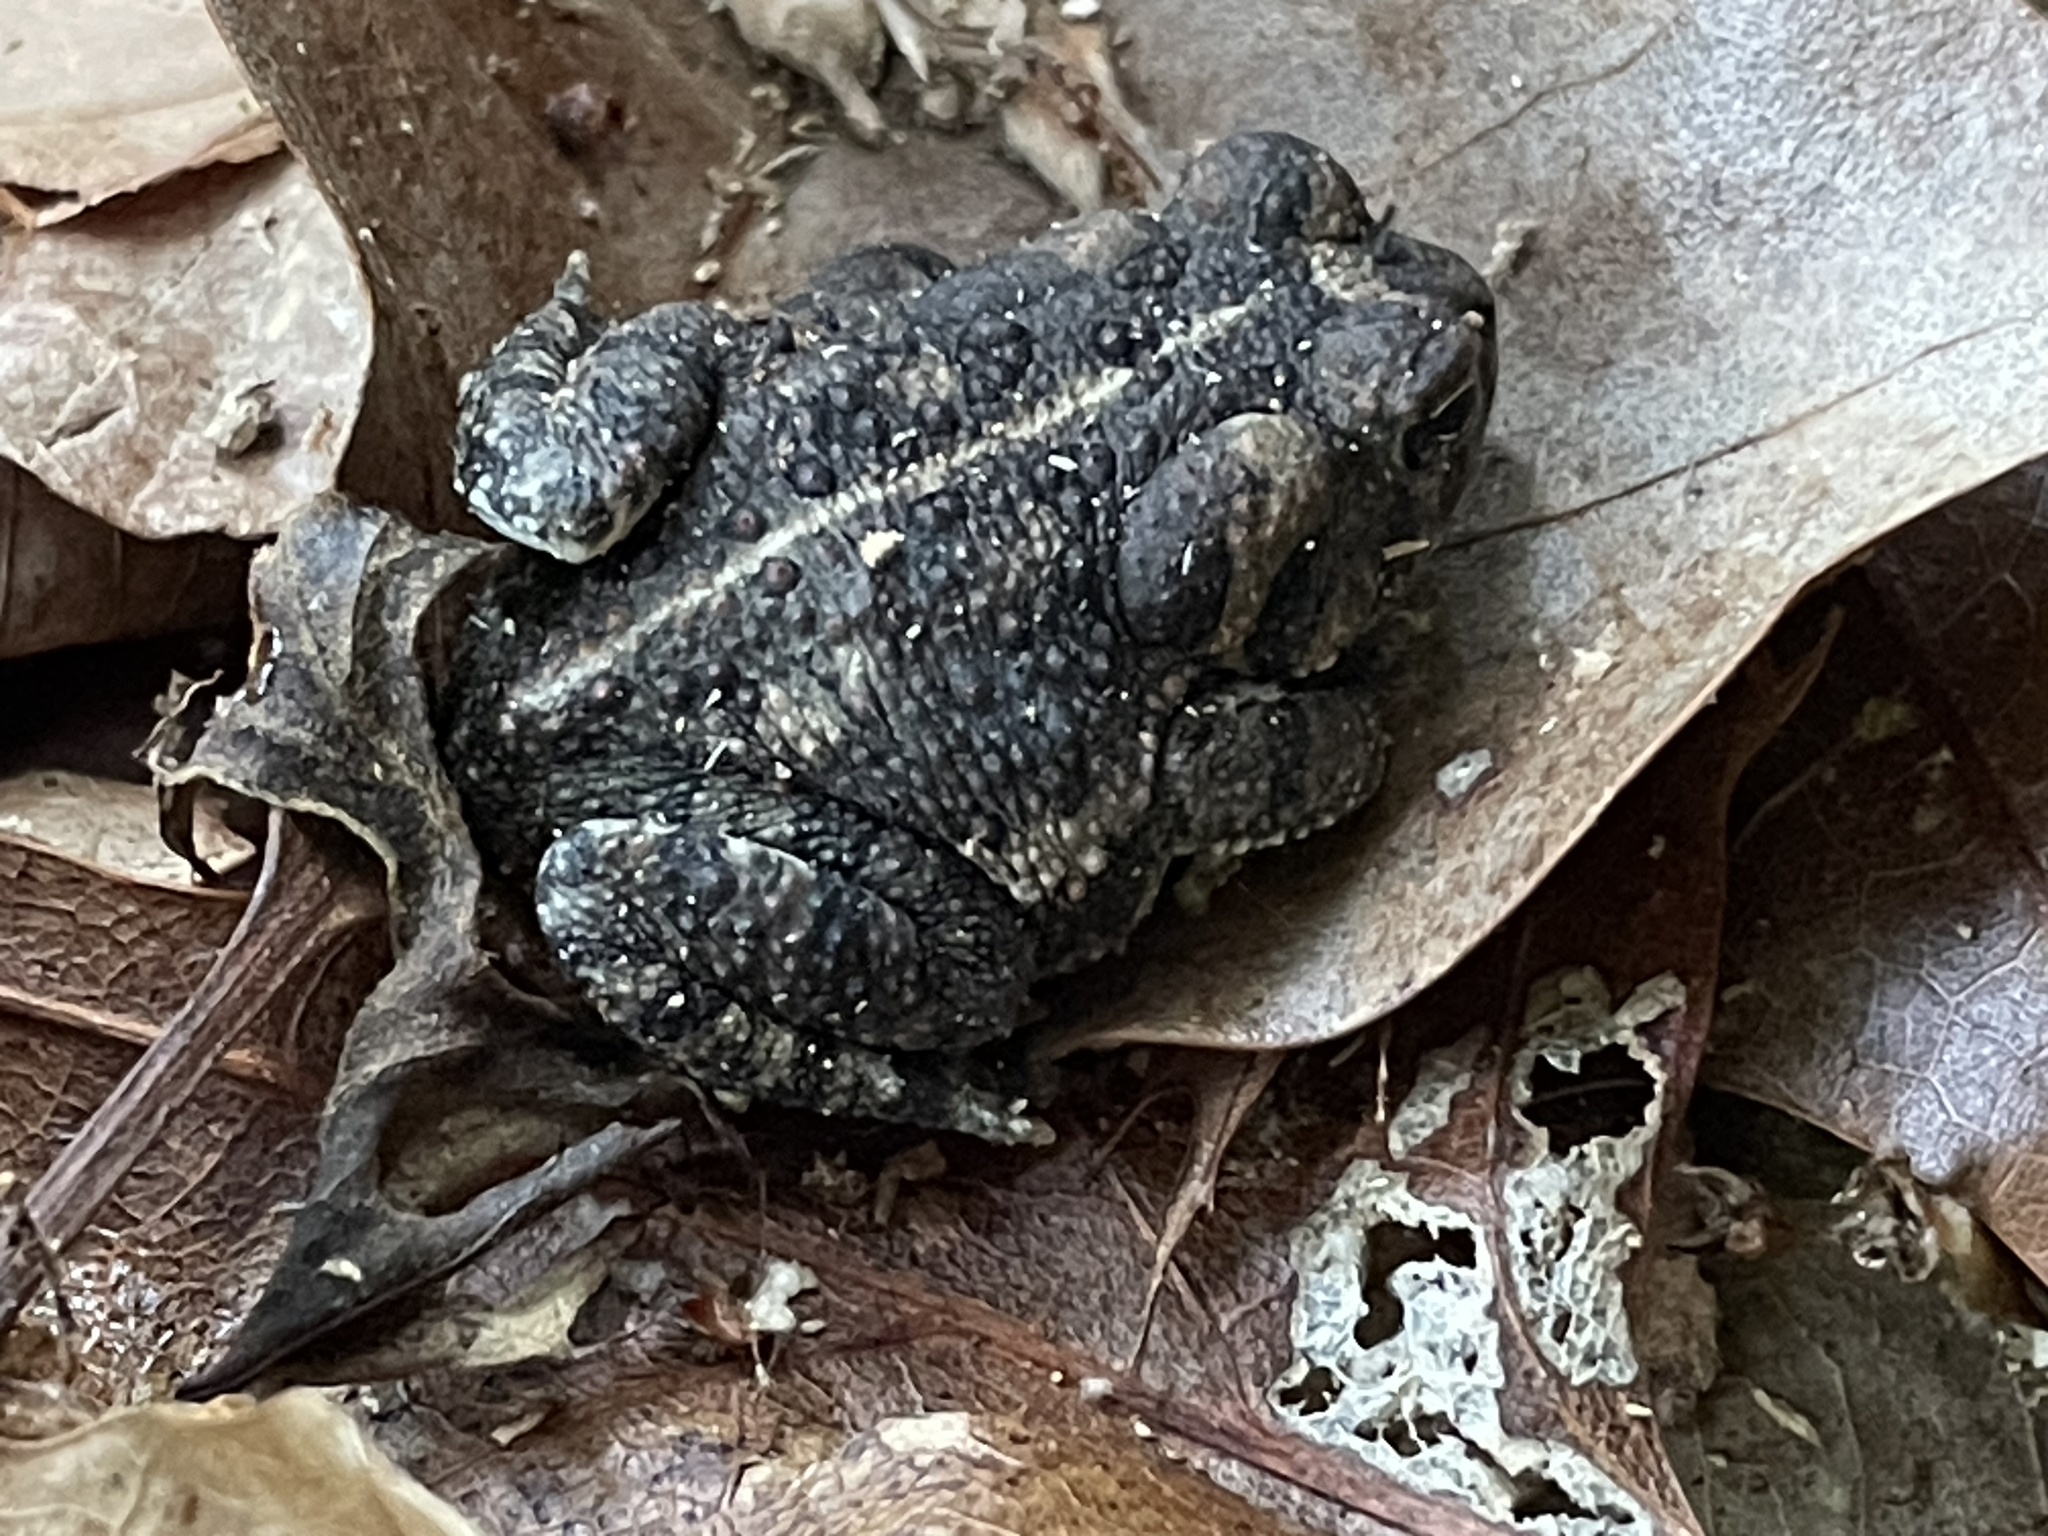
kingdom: Animalia
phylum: Chordata
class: Amphibia
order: Anura
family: Bufonidae
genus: Anaxyrus
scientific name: Anaxyrus fowleri
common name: Fowler's toad
